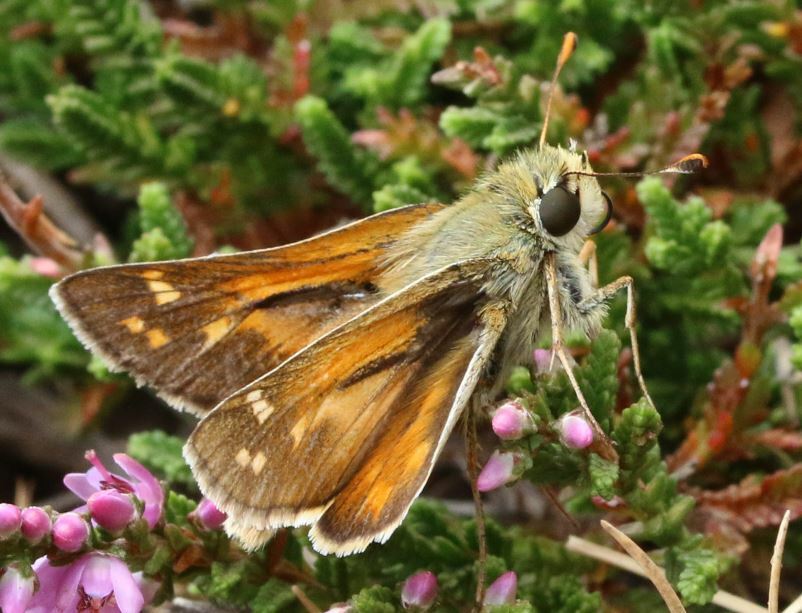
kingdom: Animalia
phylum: Arthropoda
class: Insecta
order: Lepidoptera
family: Hesperiidae
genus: Hesperia
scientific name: Hesperia comma
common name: Common branded skipper
